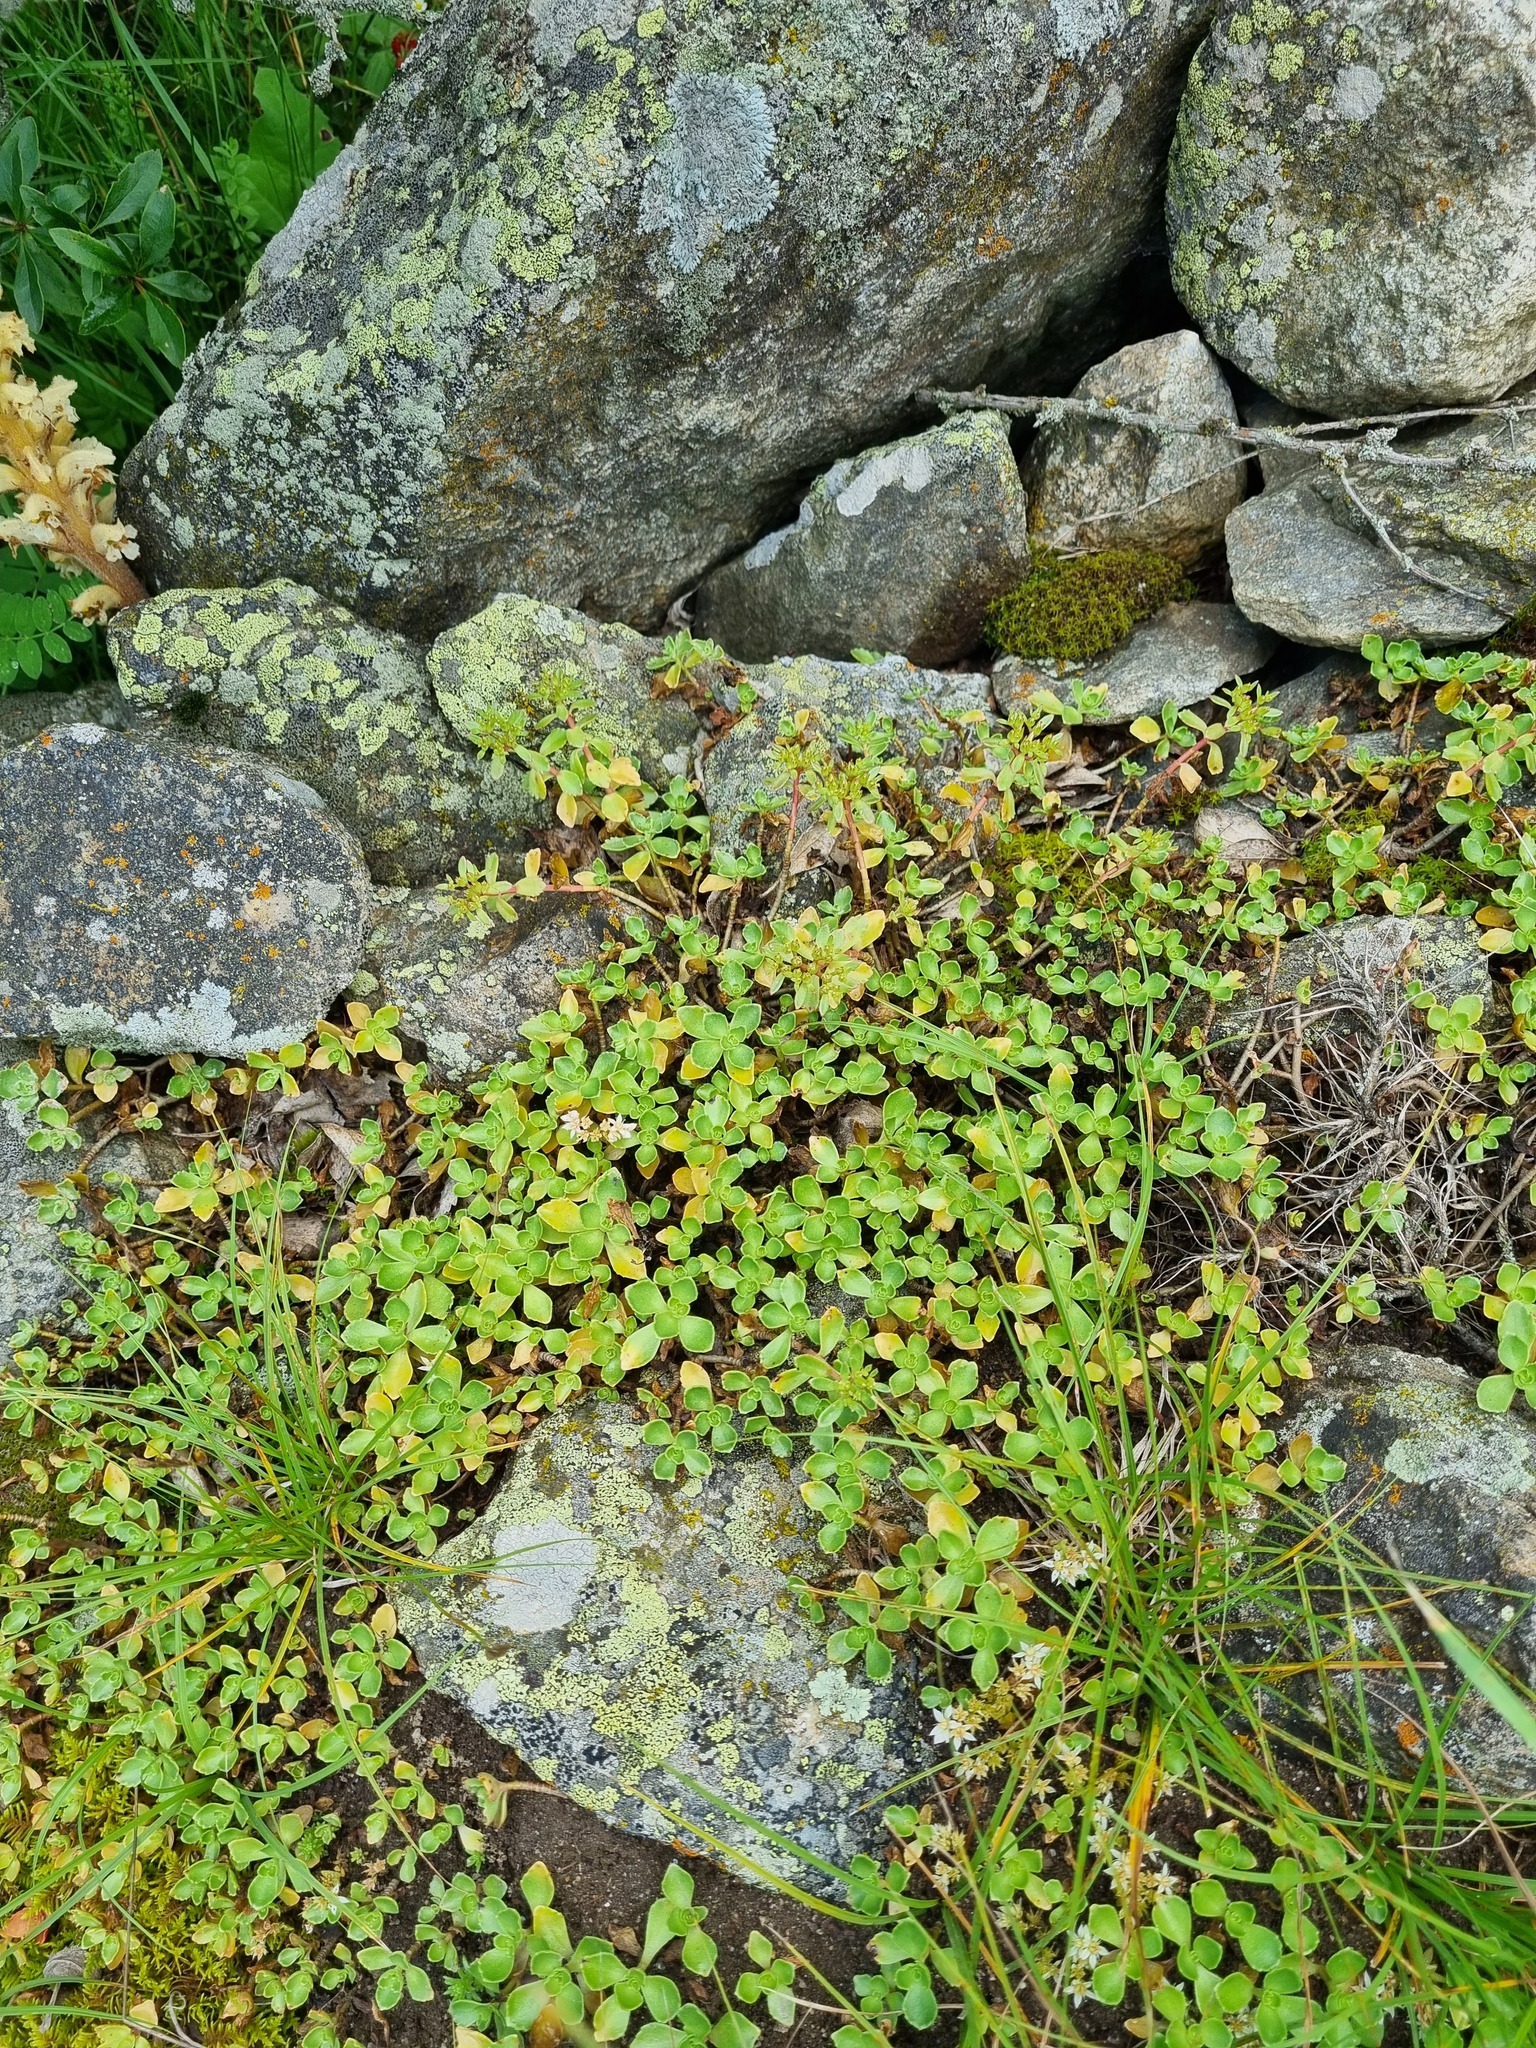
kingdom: Plantae
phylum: Tracheophyta
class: Magnoliopsida
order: Saxifragales
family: Crassulaceae
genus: Phedimus
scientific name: Phedimus spurius
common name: Caucasian stonecrop
